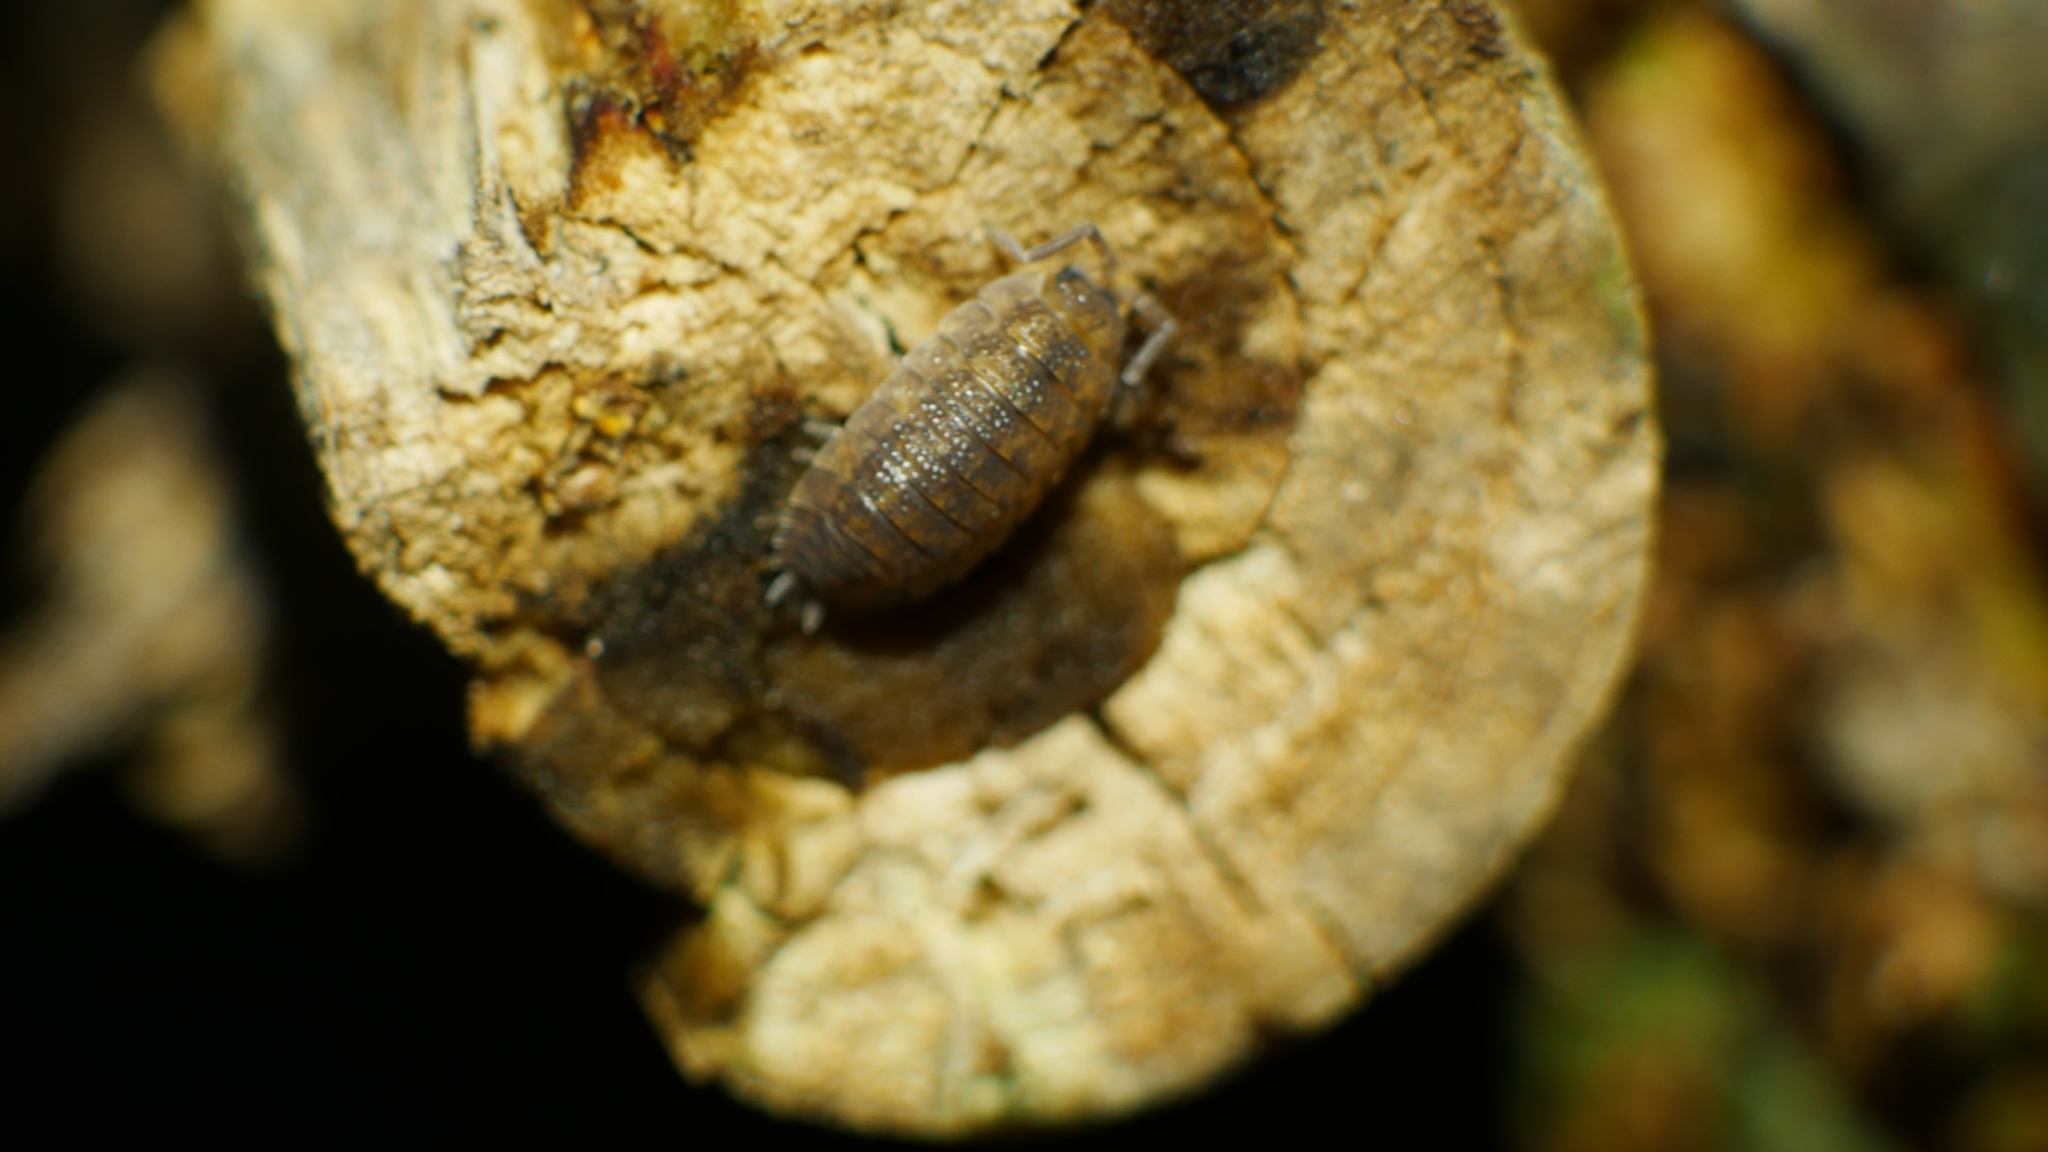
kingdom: Animalia
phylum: Arthropoda
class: Malacostraca
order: Isopoda
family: Porcellionidae
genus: Porcellio
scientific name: Porcellio scaber
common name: Common rough woodlouse
